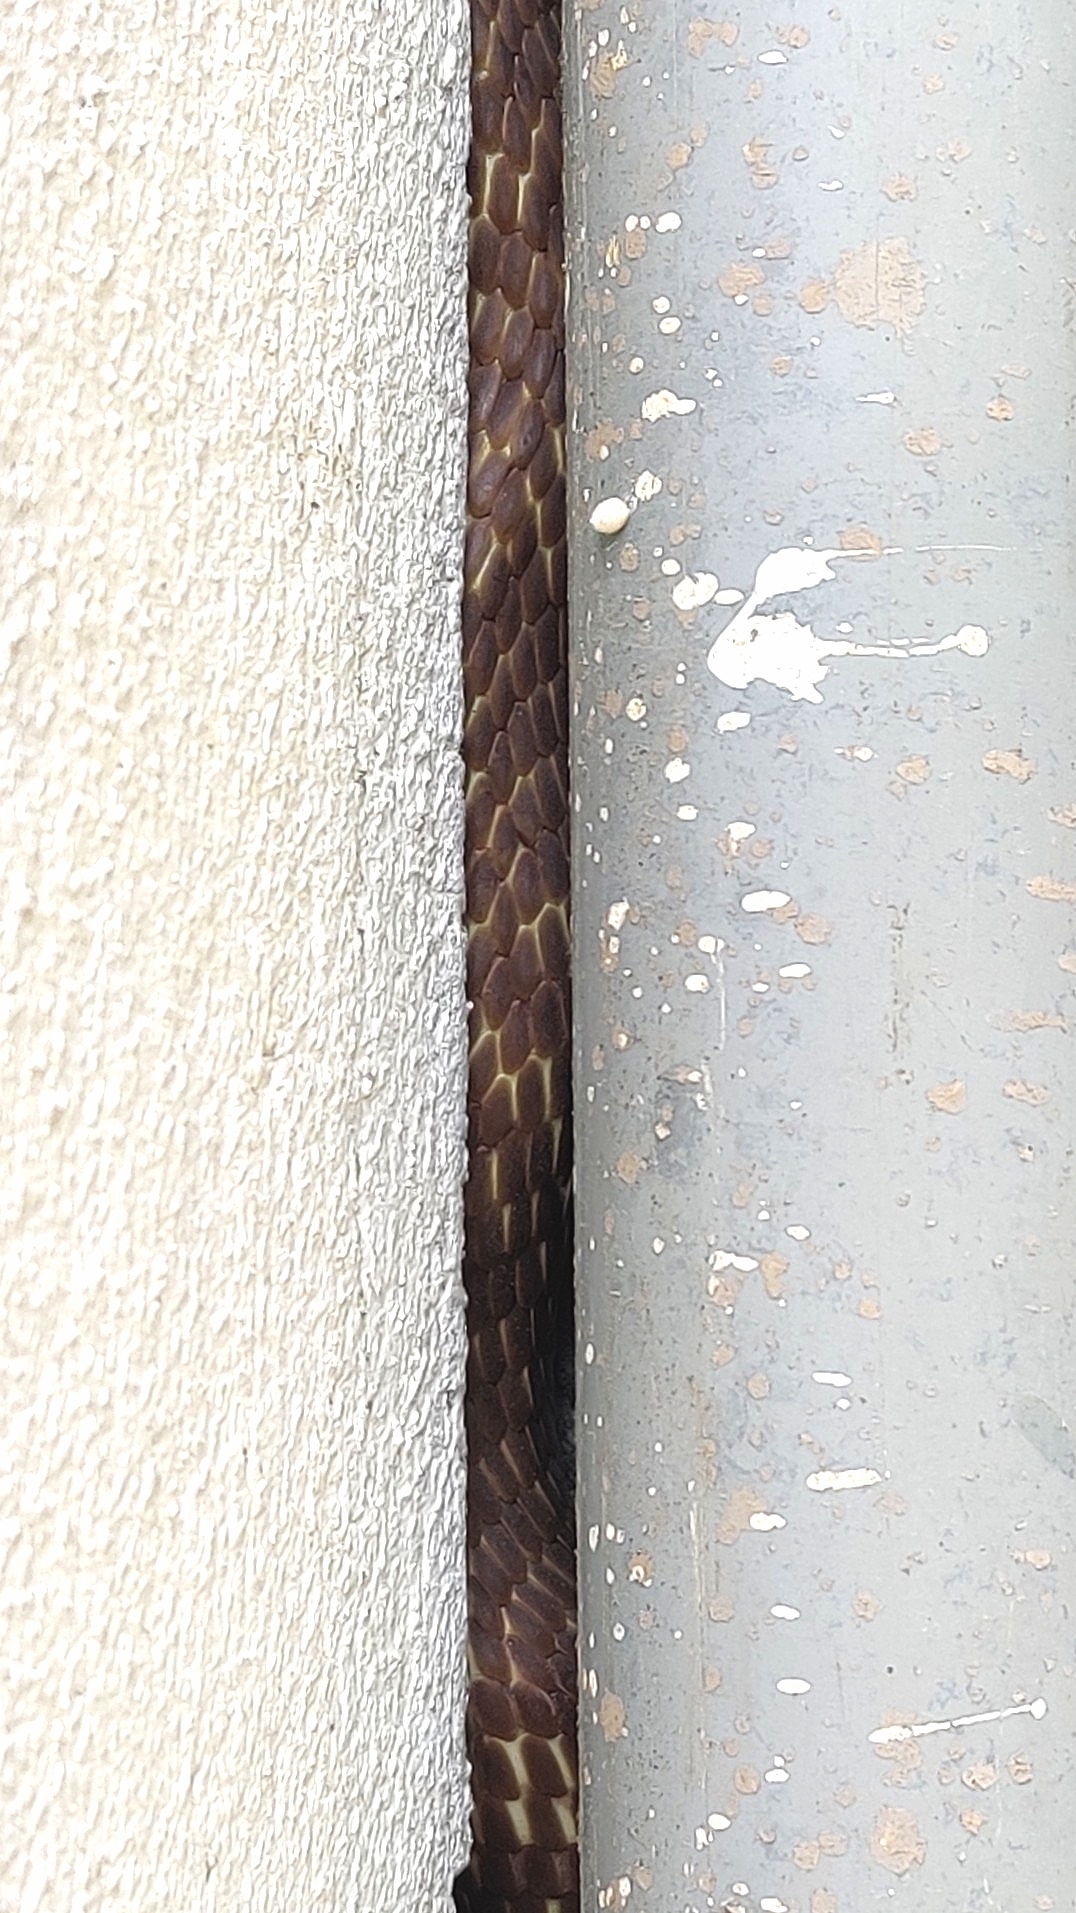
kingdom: Animalia
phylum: Chordata
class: Squamata
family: Elapidae
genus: Naja
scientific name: Naja naja
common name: Indian cobra
